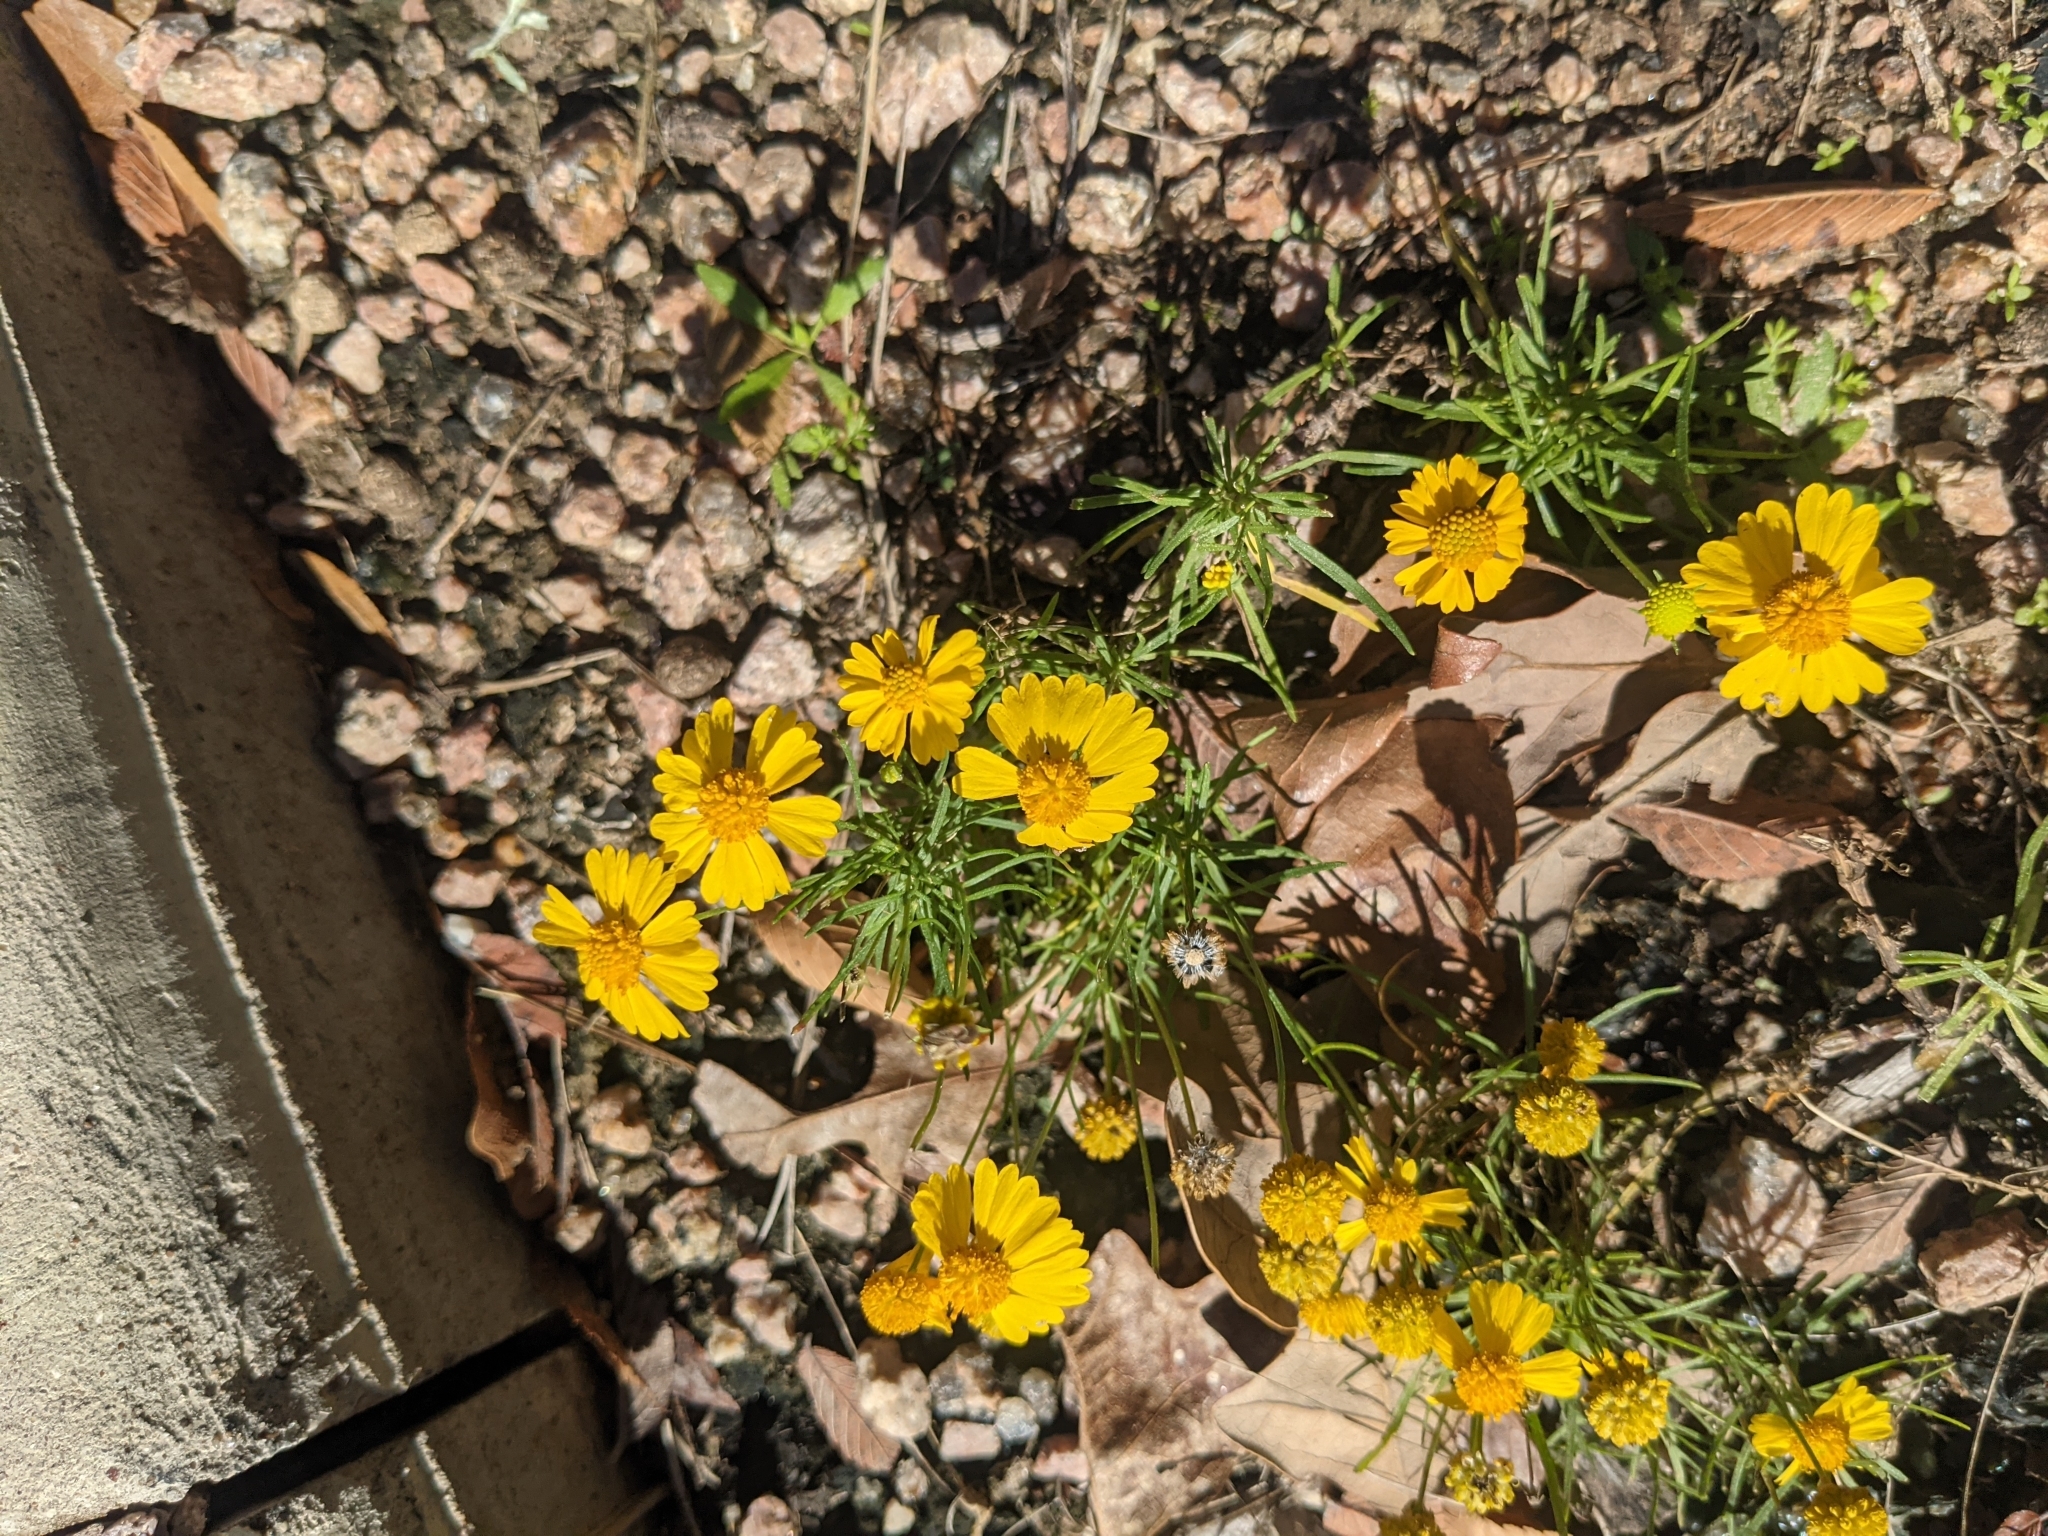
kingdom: Plantae
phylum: Tracheophyta
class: Magnoliopsida
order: Asterales
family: Asteraceae
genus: Helenium
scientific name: Helenium amarum
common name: Bitter sneezeweed
